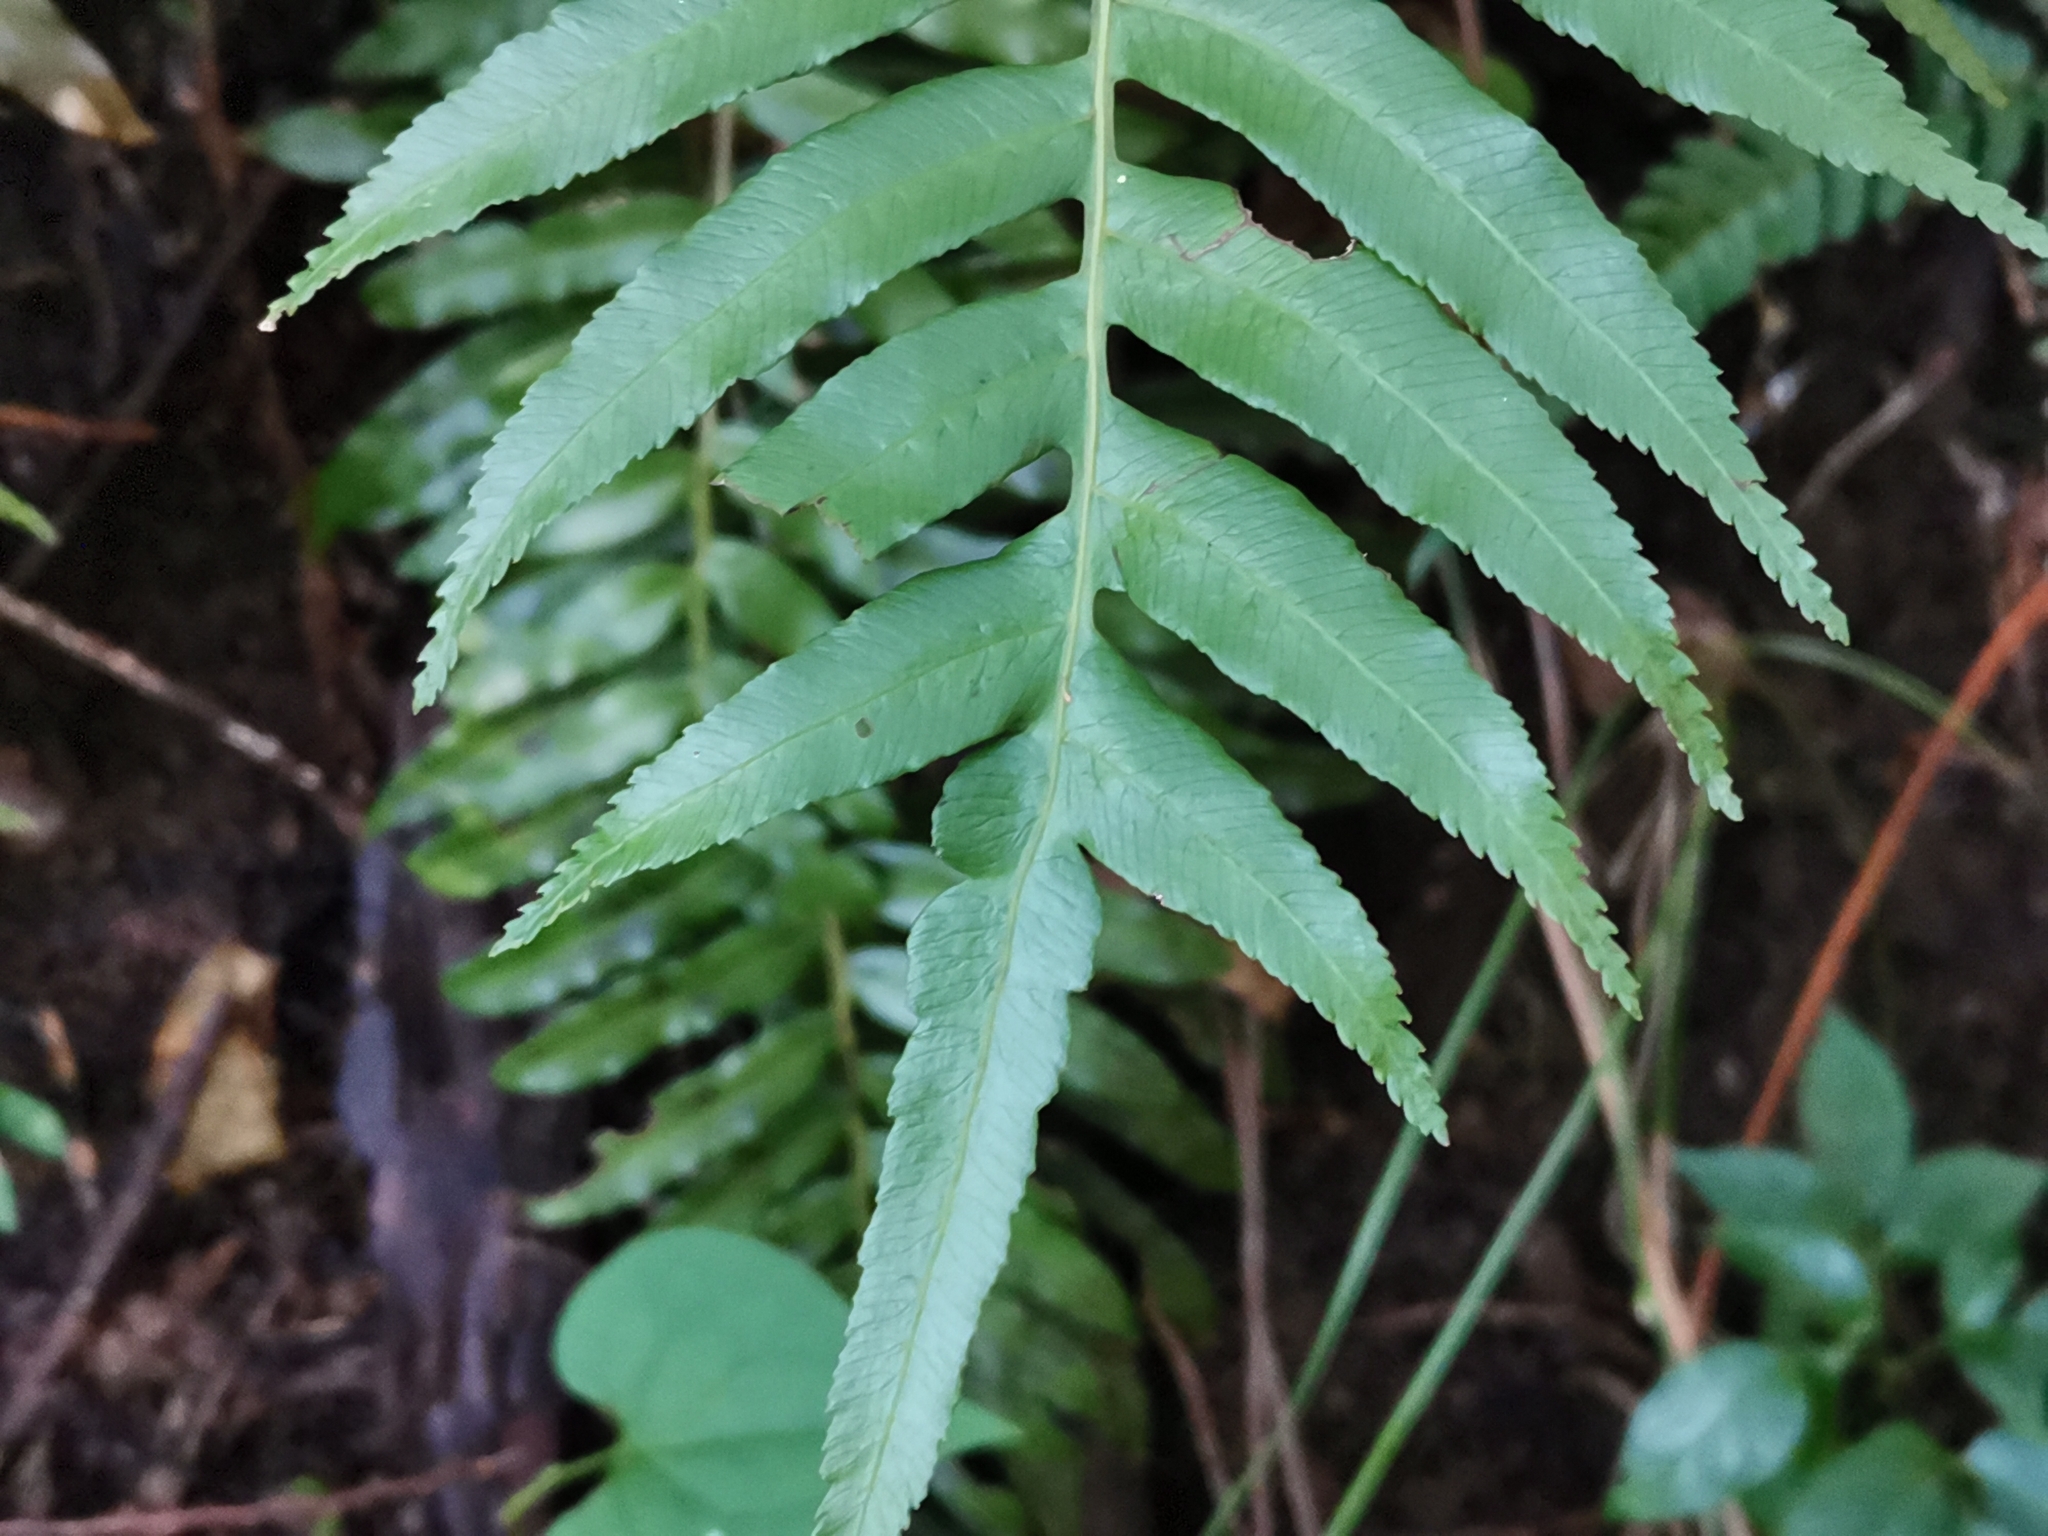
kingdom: Plantae
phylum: Tracheophyta
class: Polypodiopsida
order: Cyatheales
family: Plagiogyriaceae
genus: Plagiogyria
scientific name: Plagiogyria japonica
